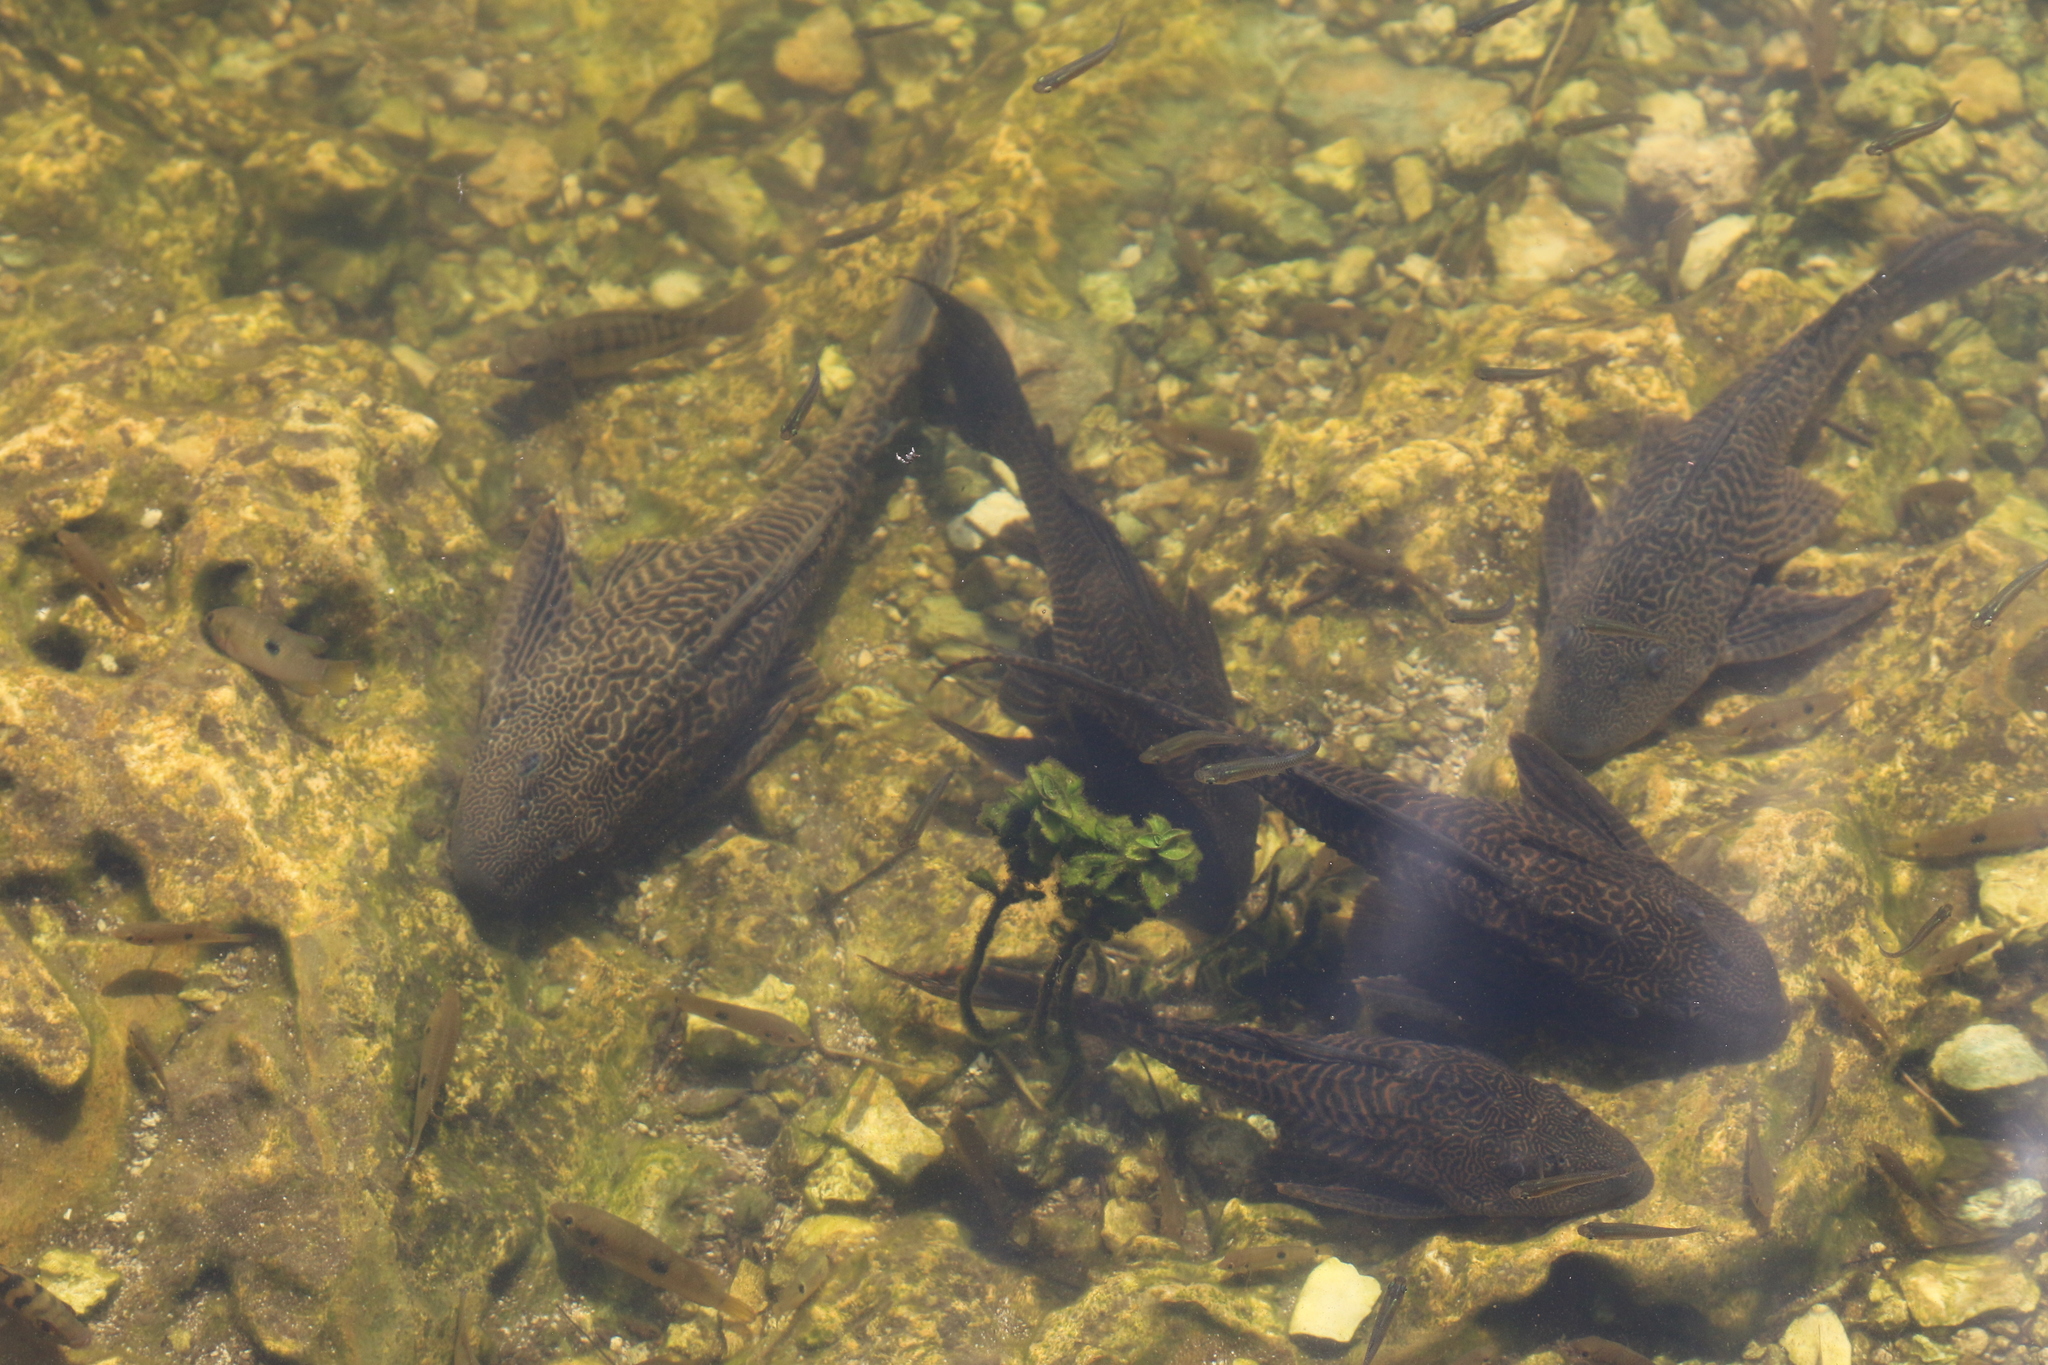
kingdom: Animalia
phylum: Chordata
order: Siluriformes
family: Loricariidae
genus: Pterygoplichthys
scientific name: Pterygoplichthys
